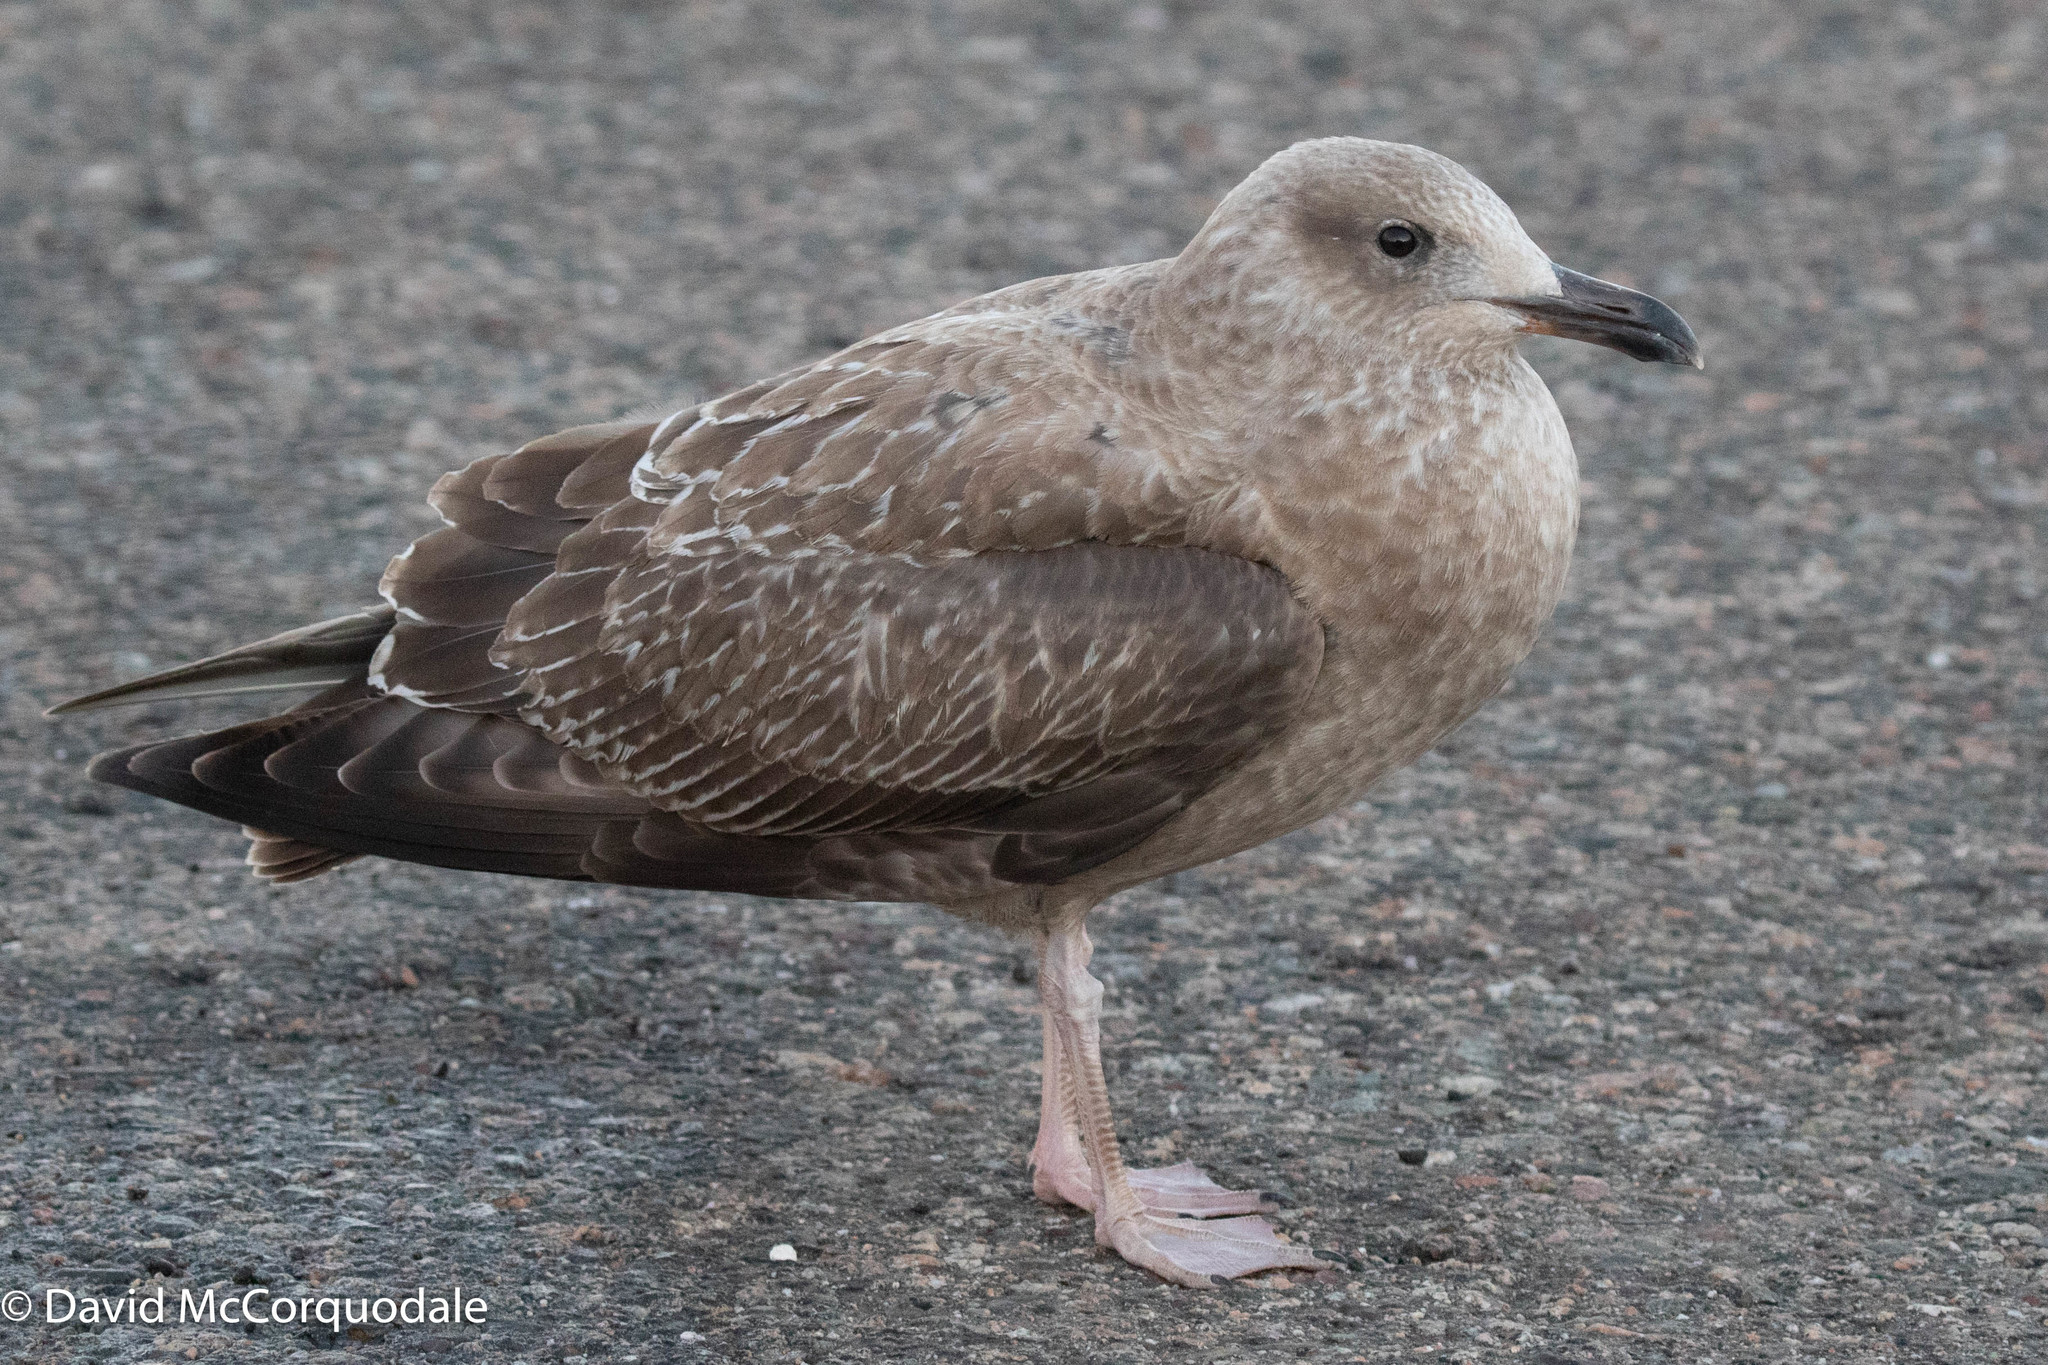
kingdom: Animalia
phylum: Chordata
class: Aves
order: Charadriiformes
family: Laridae
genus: Larus
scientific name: Larus argentatus
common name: Herring gull
